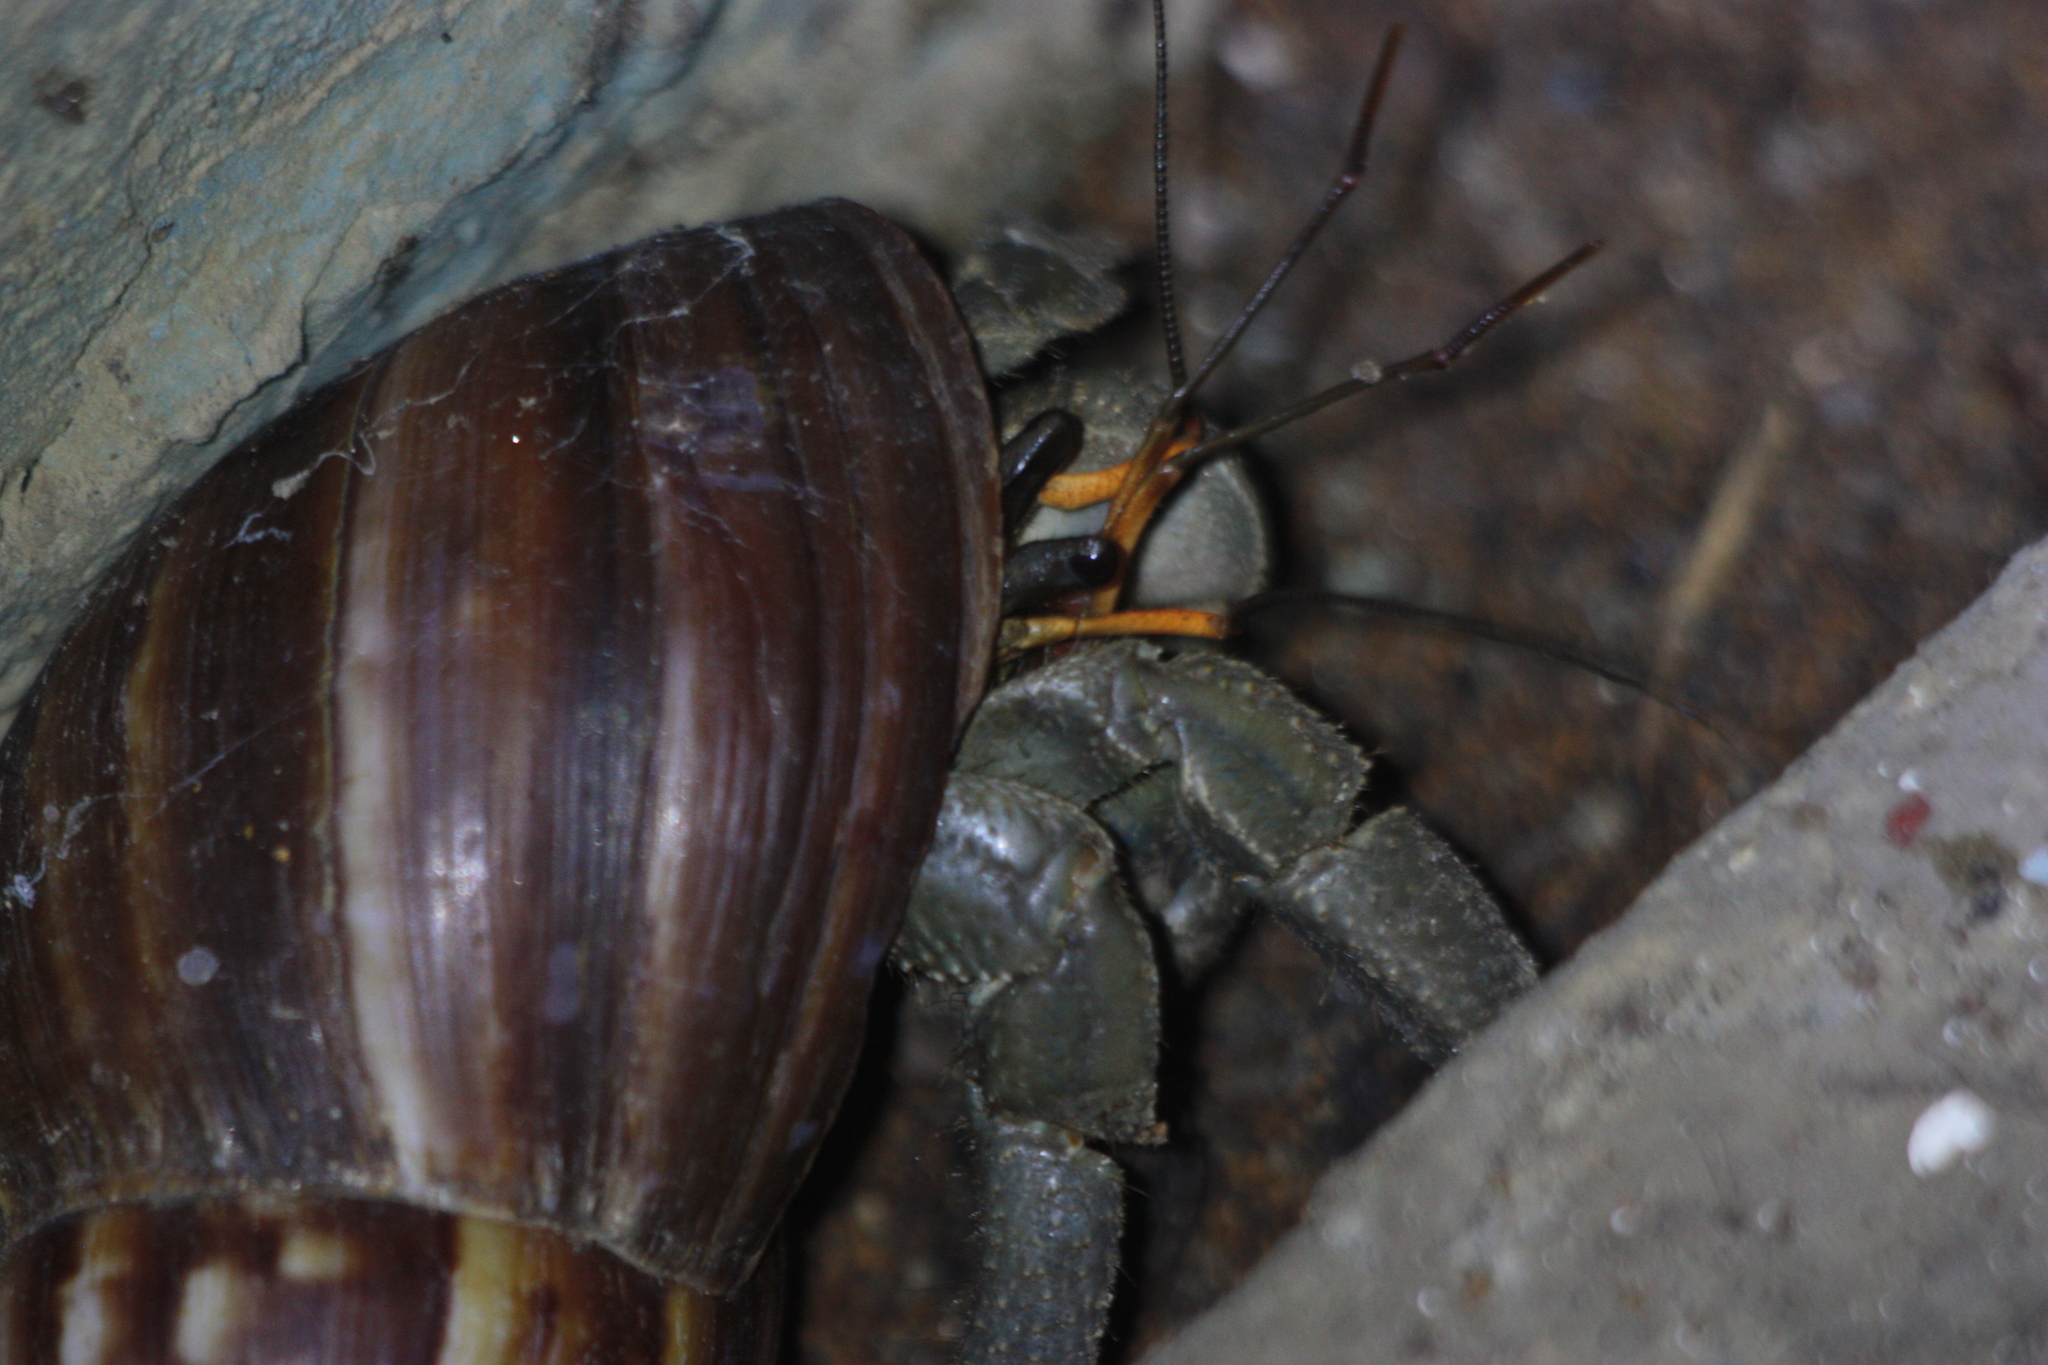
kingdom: Animalia
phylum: Arthropoda
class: Malacostraca
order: Decapoda
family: Coenobitidae
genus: Coenobita
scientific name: Coenobita cavipes
